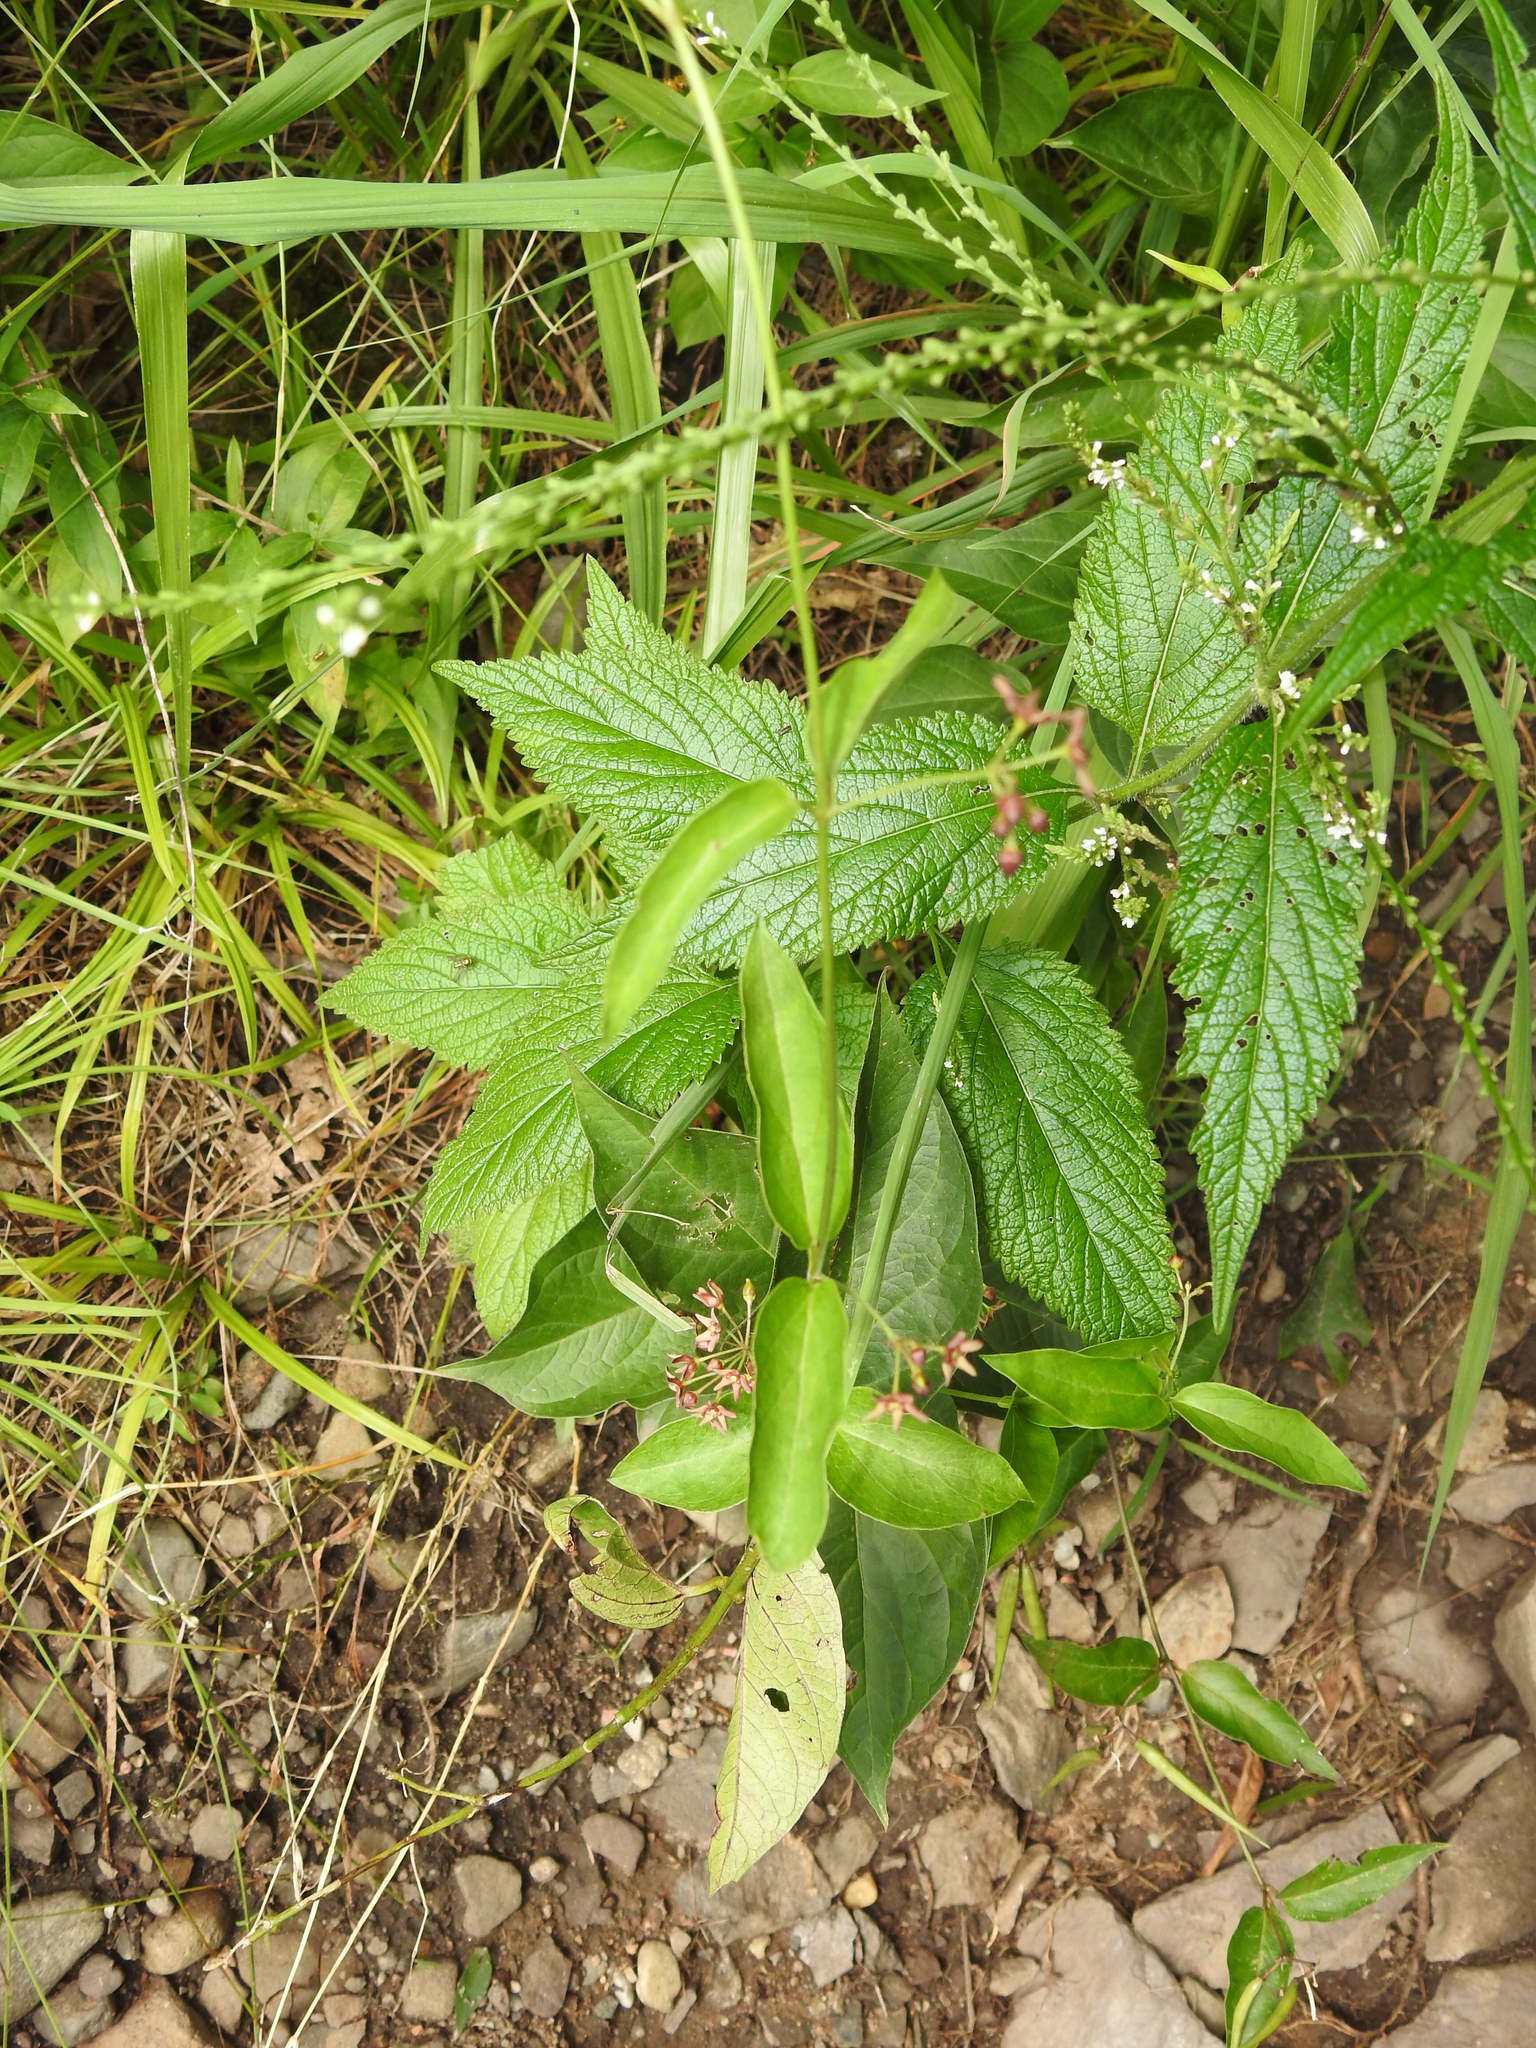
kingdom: Plantae
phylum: Tracheophyta
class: Magnoliopsida
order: Gentianales
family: Apocynaceae
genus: Vincetoxicum
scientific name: Vincetoxicum rossicum
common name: Dog-strangling vine
